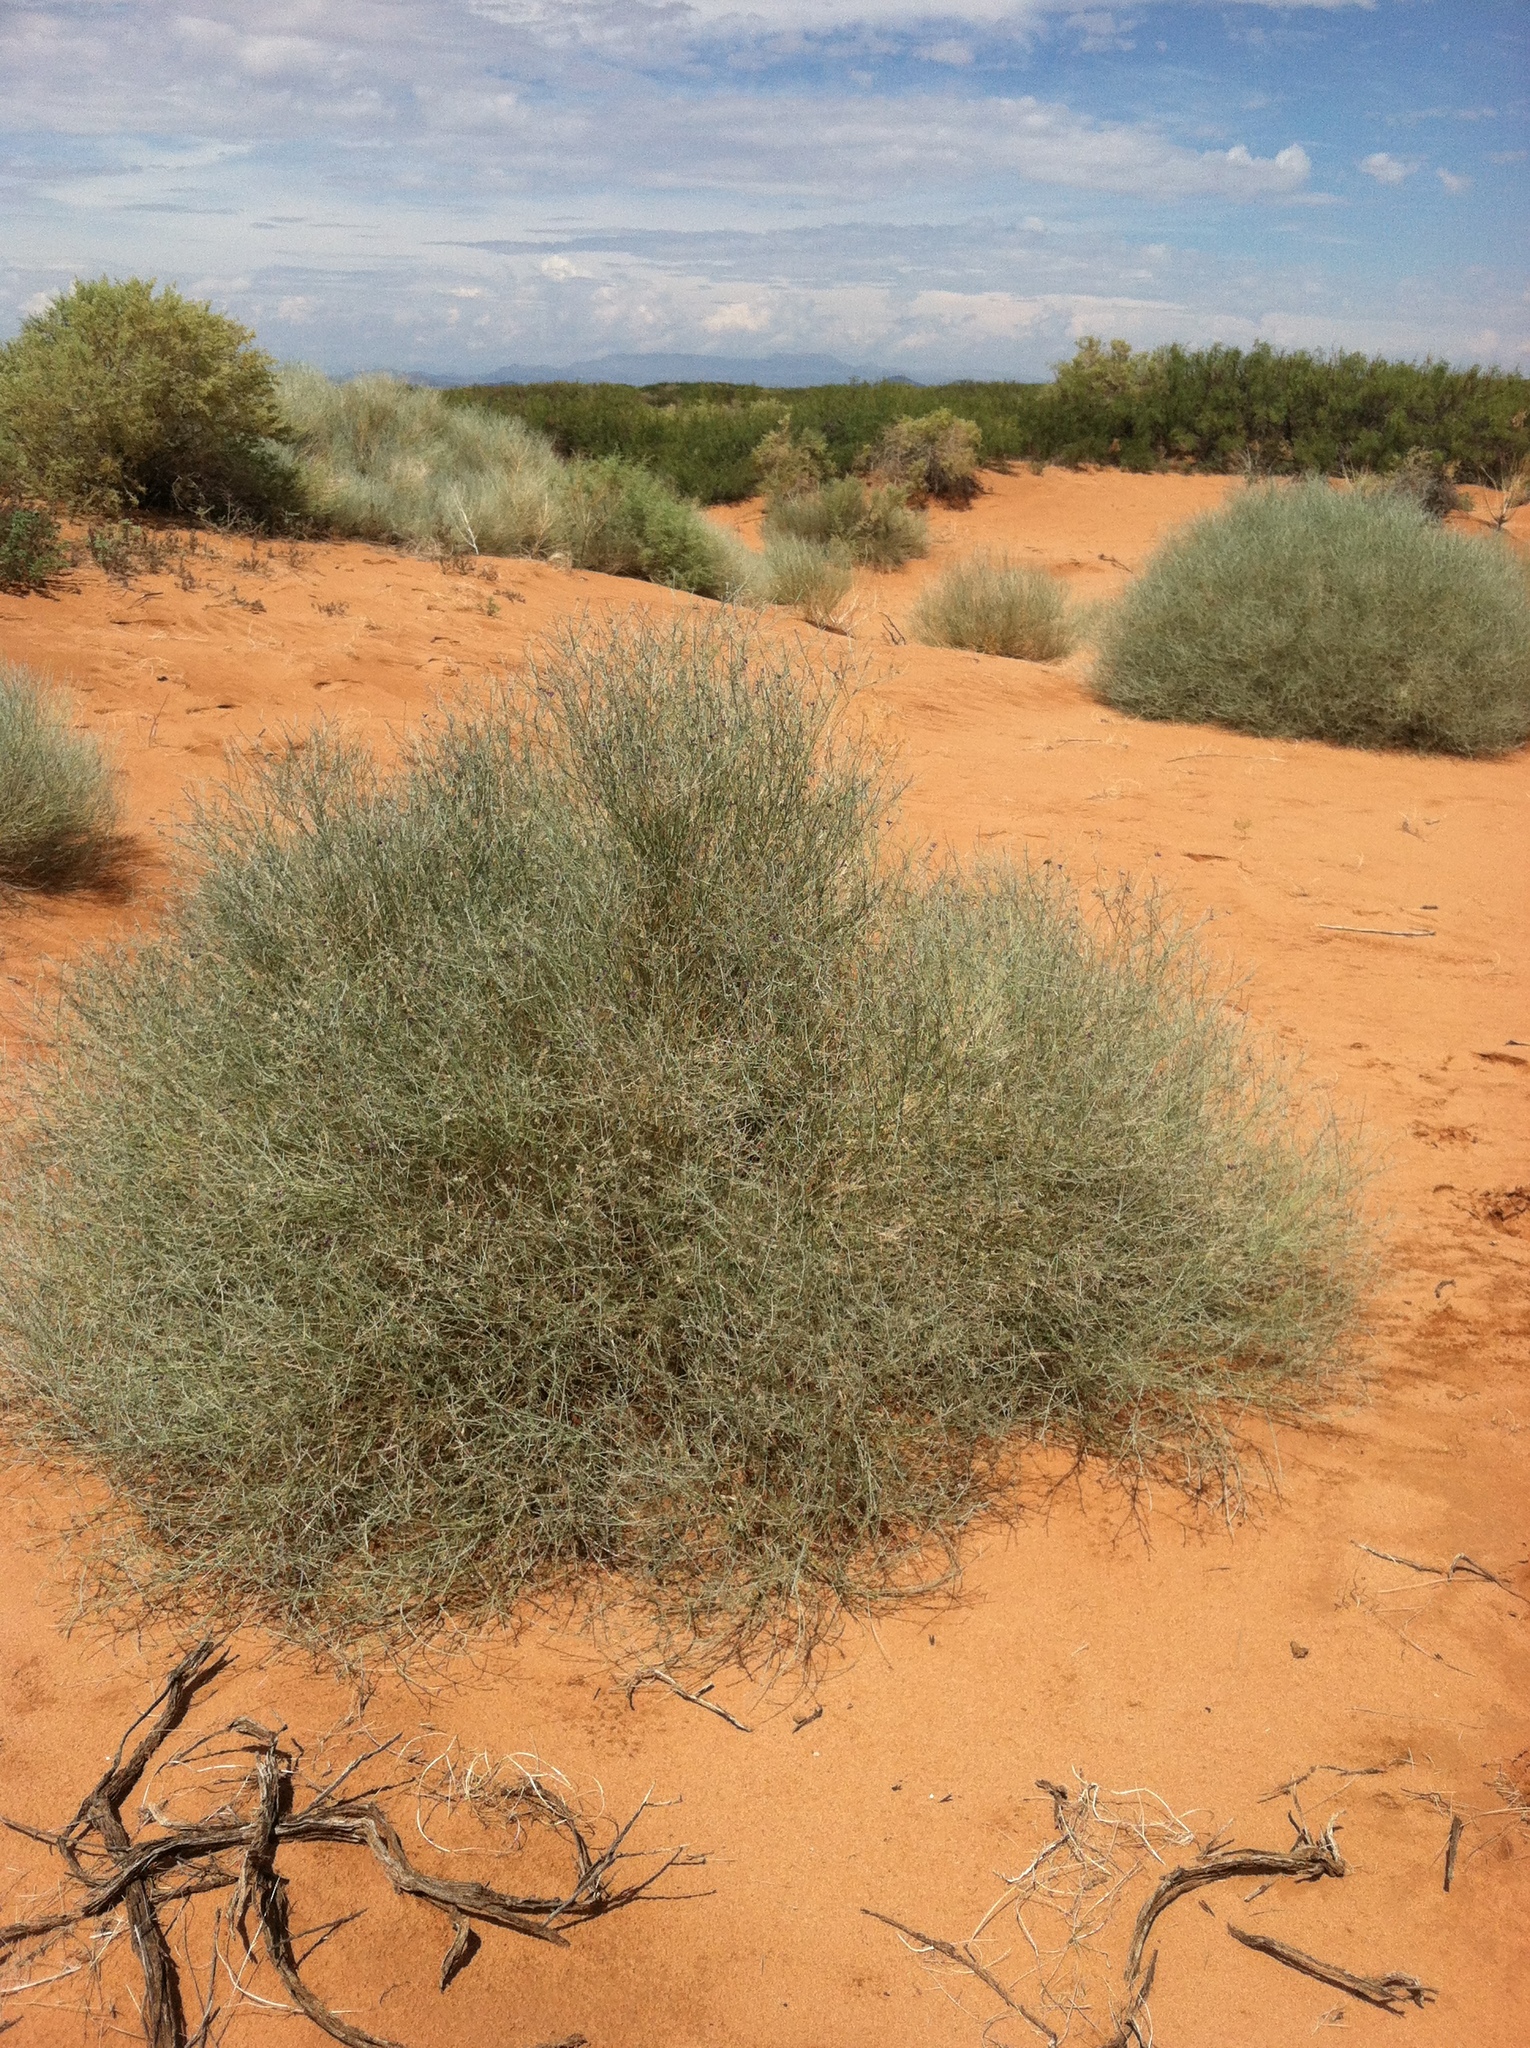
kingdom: Plantae
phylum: Tracheophyta
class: Magnoliopsida
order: Fabales
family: Fabaceae
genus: Psorothamnus
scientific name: Psorothamnus scoparius
